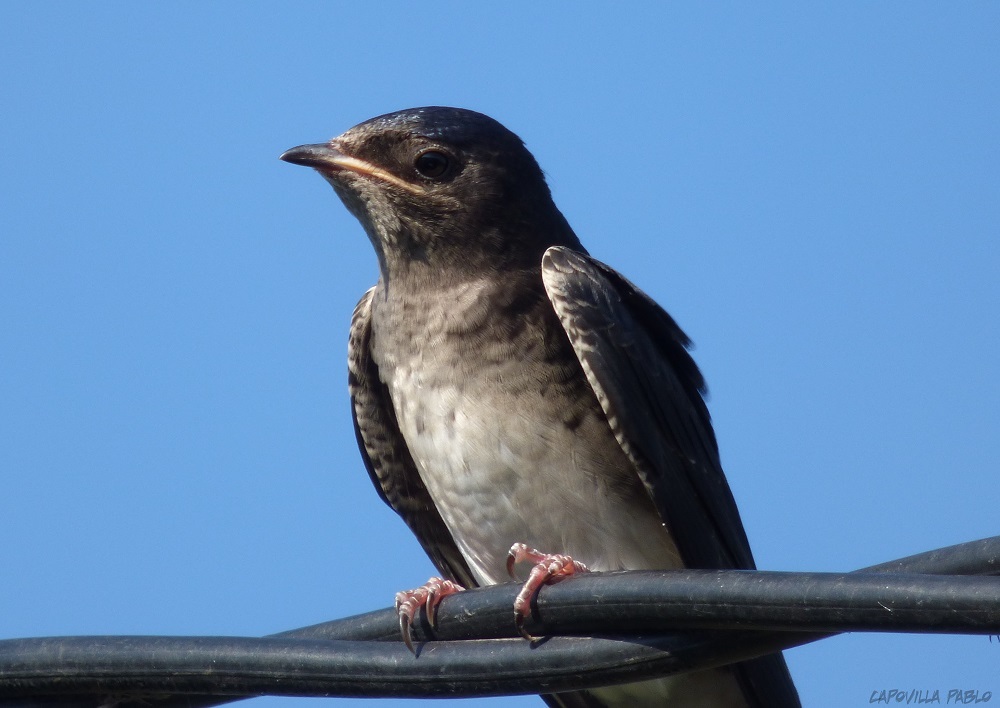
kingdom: Animalia
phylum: Chordata
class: Aves
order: Passeriformes
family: Hirundinidae
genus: Progne
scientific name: Progne chalybea
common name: Grey-breasted martin
